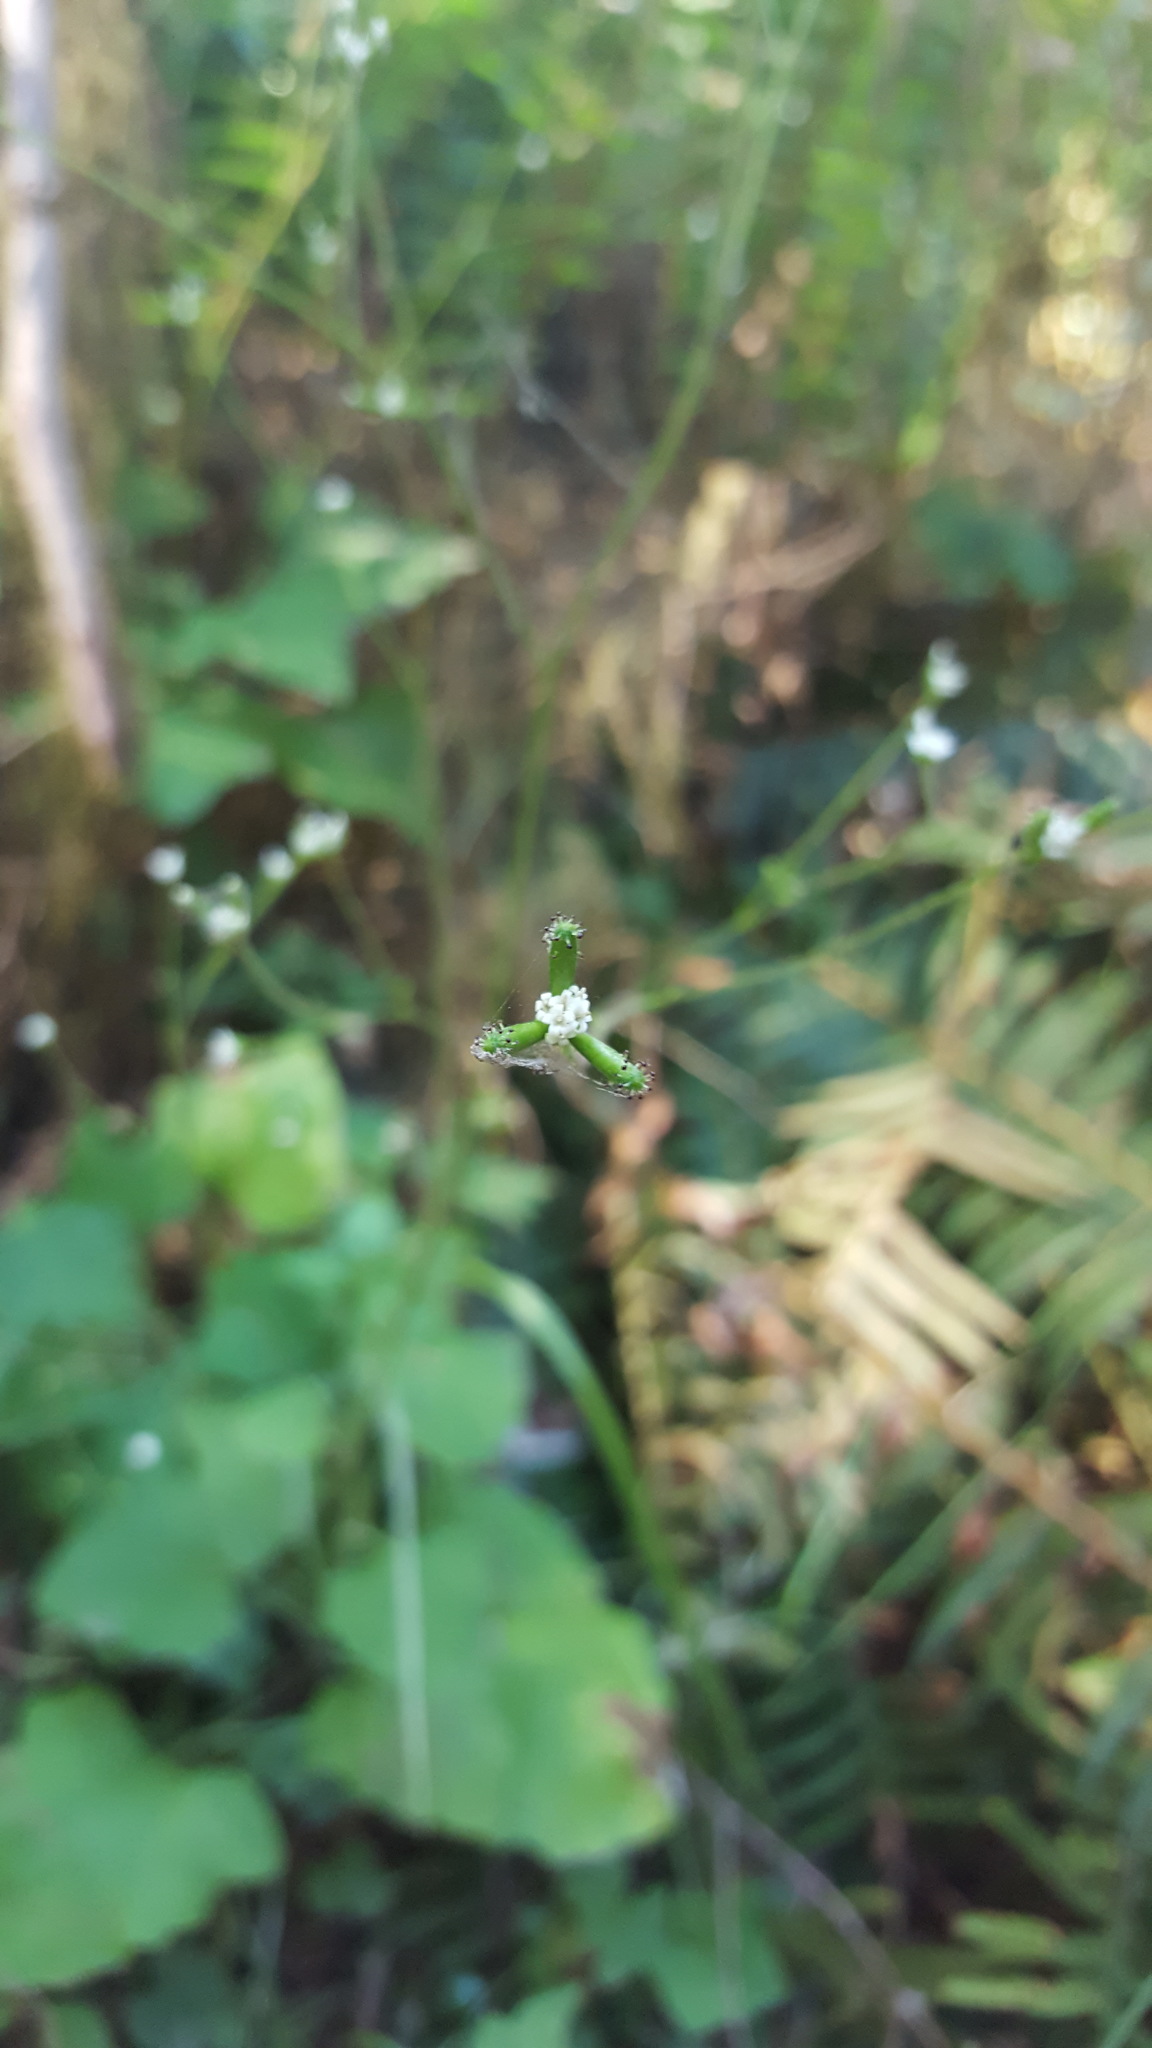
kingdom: Plantae
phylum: Tracheophyta
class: Magnoliopsida
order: Asterales
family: Asteraceae
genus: Adenocaulon
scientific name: Adenocaulon bicolor
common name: Trailplant
